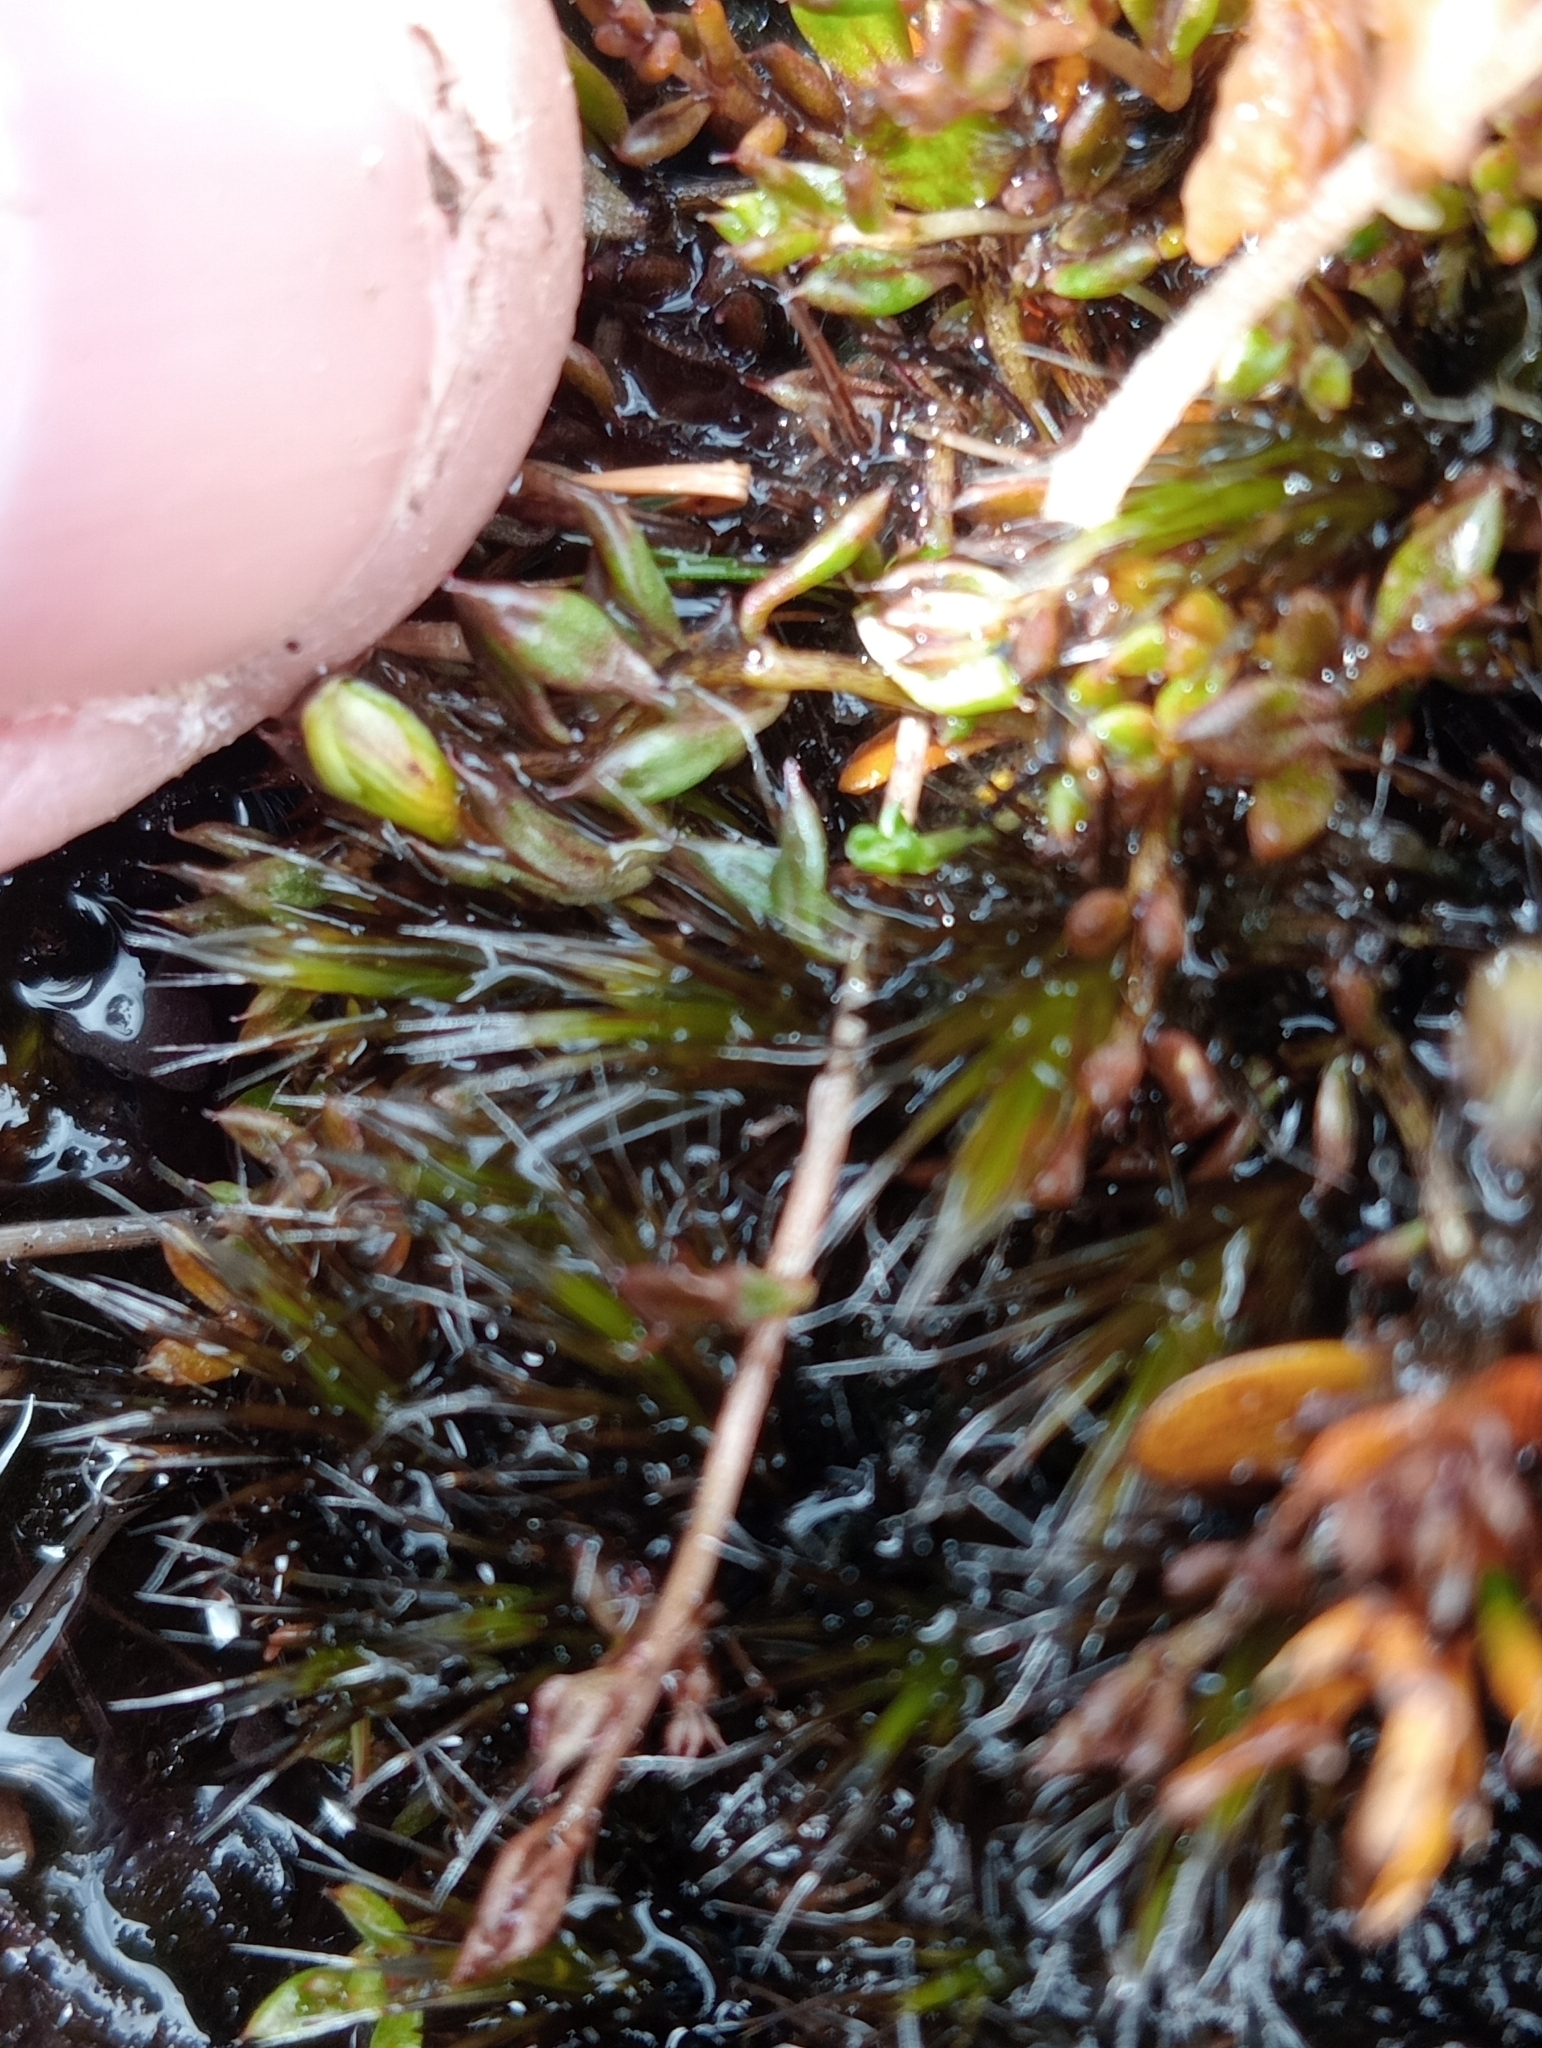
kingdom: Plantae
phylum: Tracheophyta
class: Magnoliopsida
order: Lamiales
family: Orobanchaceae
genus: Euphrasia
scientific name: Euphrasia disperma
